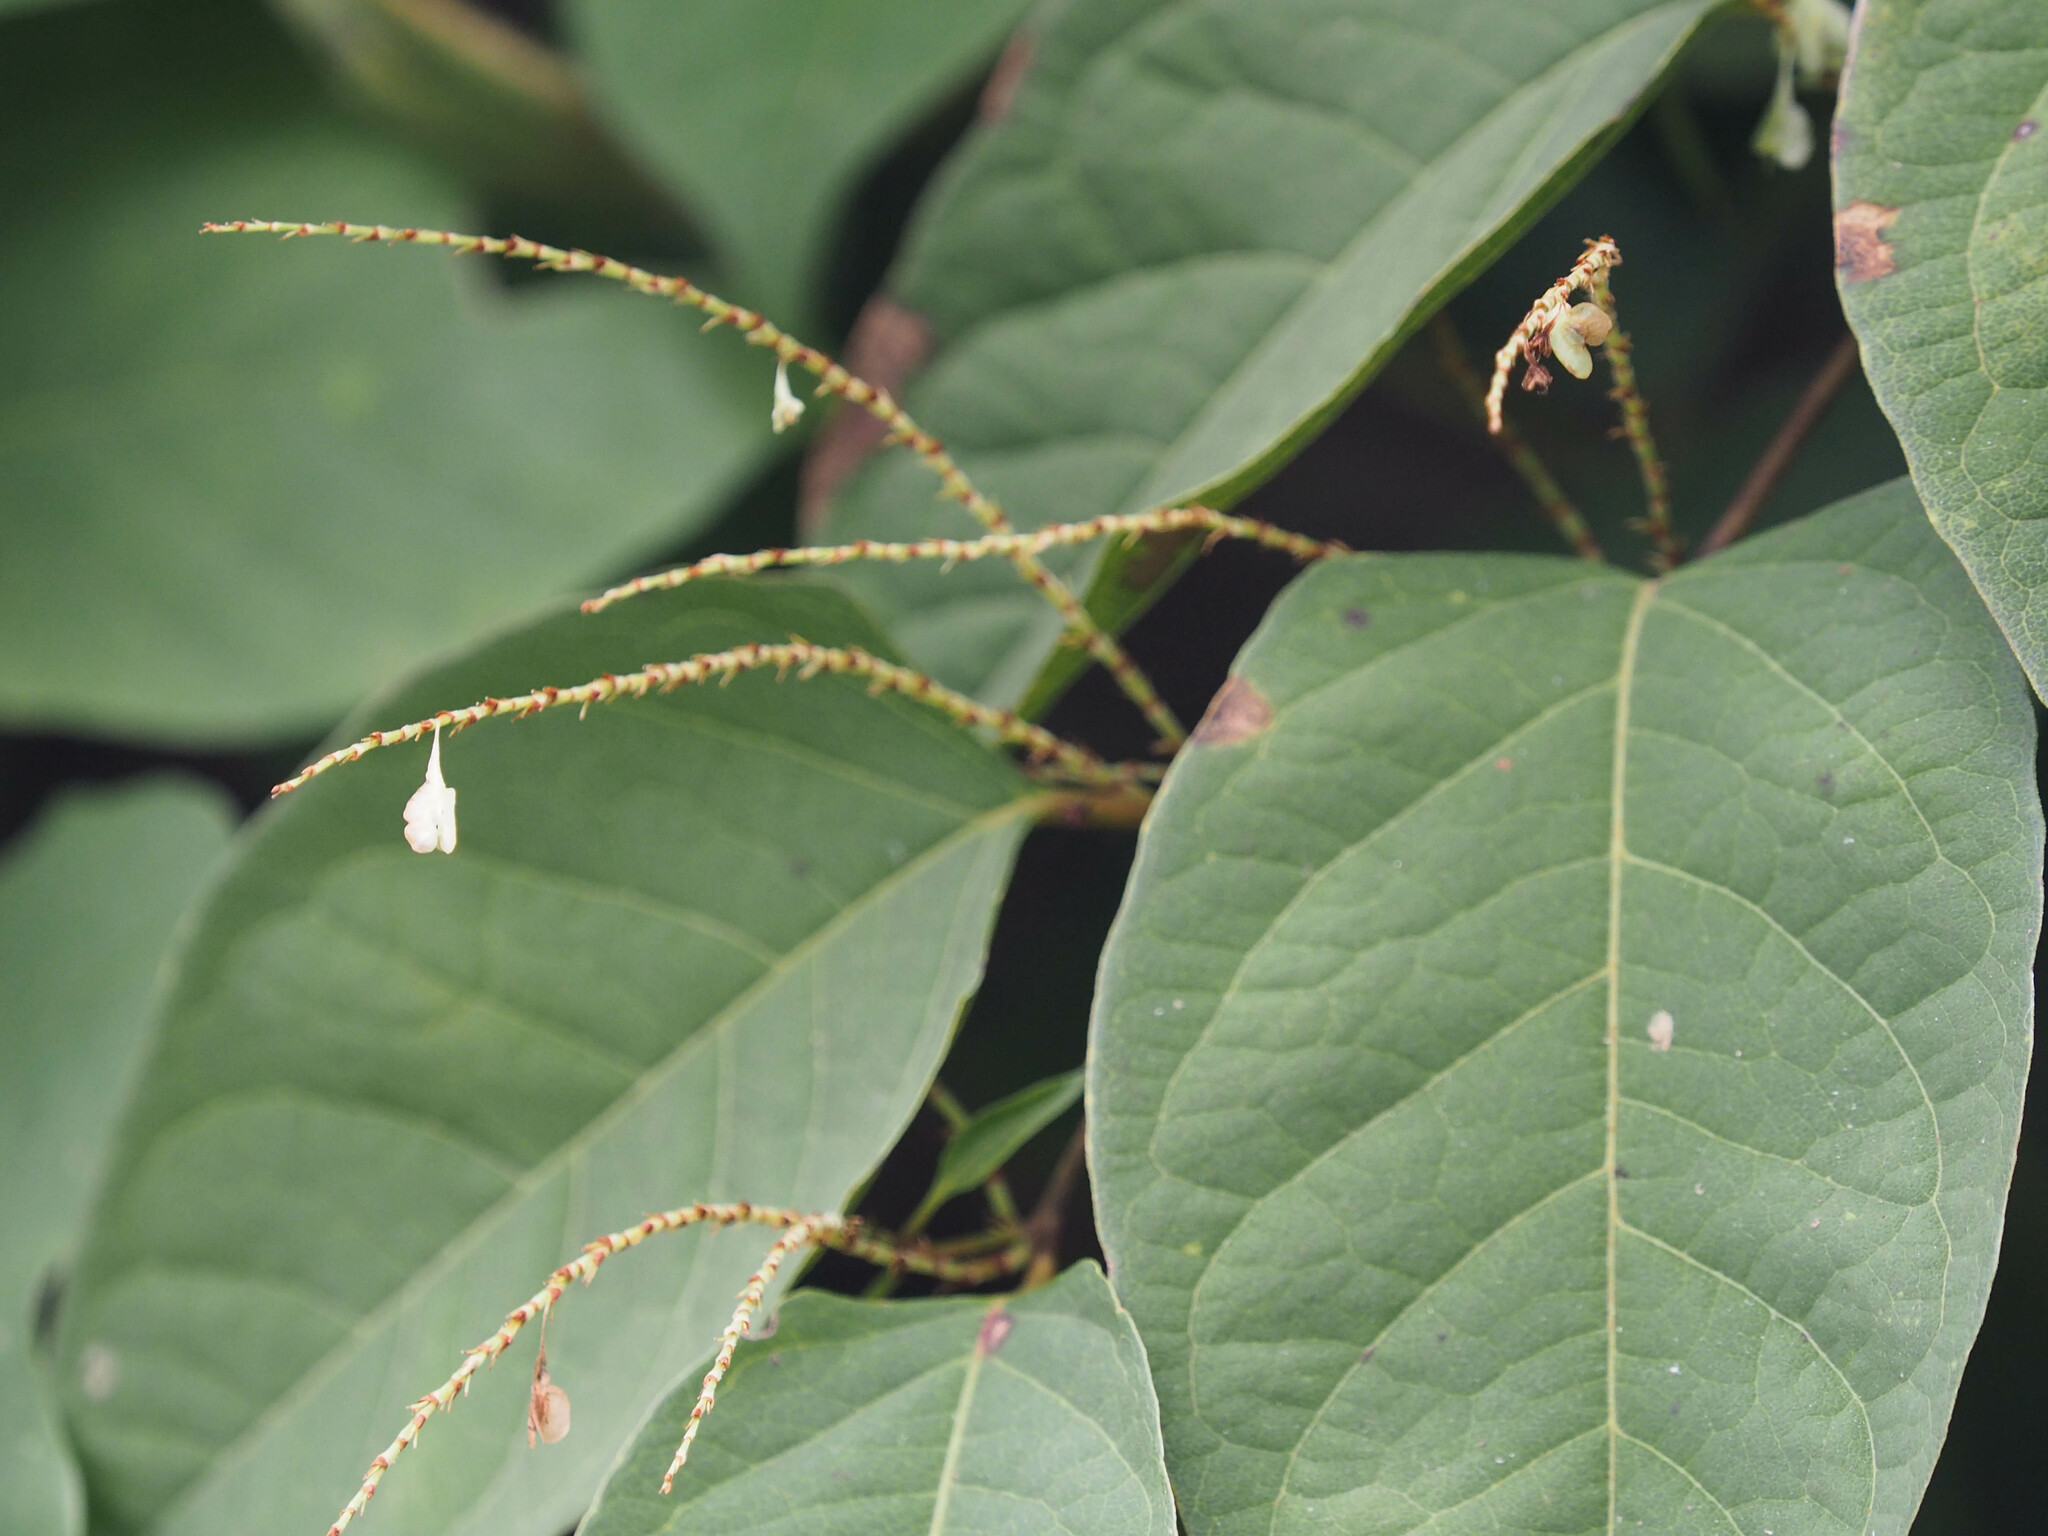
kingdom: Plantae
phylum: Tracheophyta
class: Magnoliopsida
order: Caryophyllales
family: Polygonaceae
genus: Reynoutria
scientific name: Reynoutria japonica
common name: Japanese knotweed
